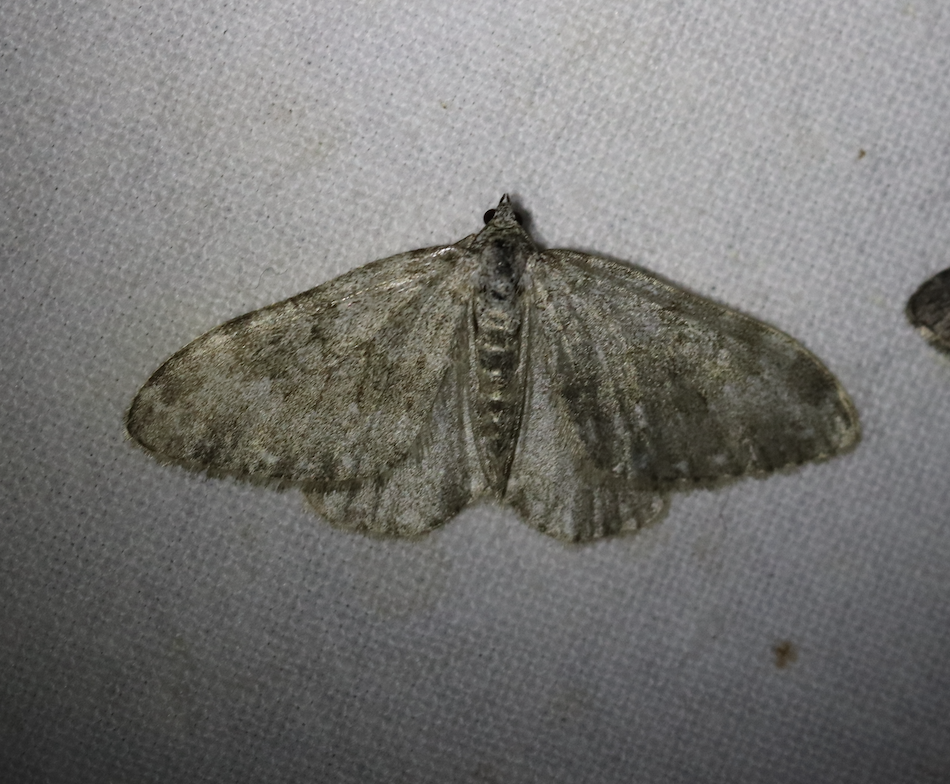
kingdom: Animalia
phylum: Arthropoda
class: Insecta
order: Lepidoptera
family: Geometridae
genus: Nebula
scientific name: Nebula salicata
